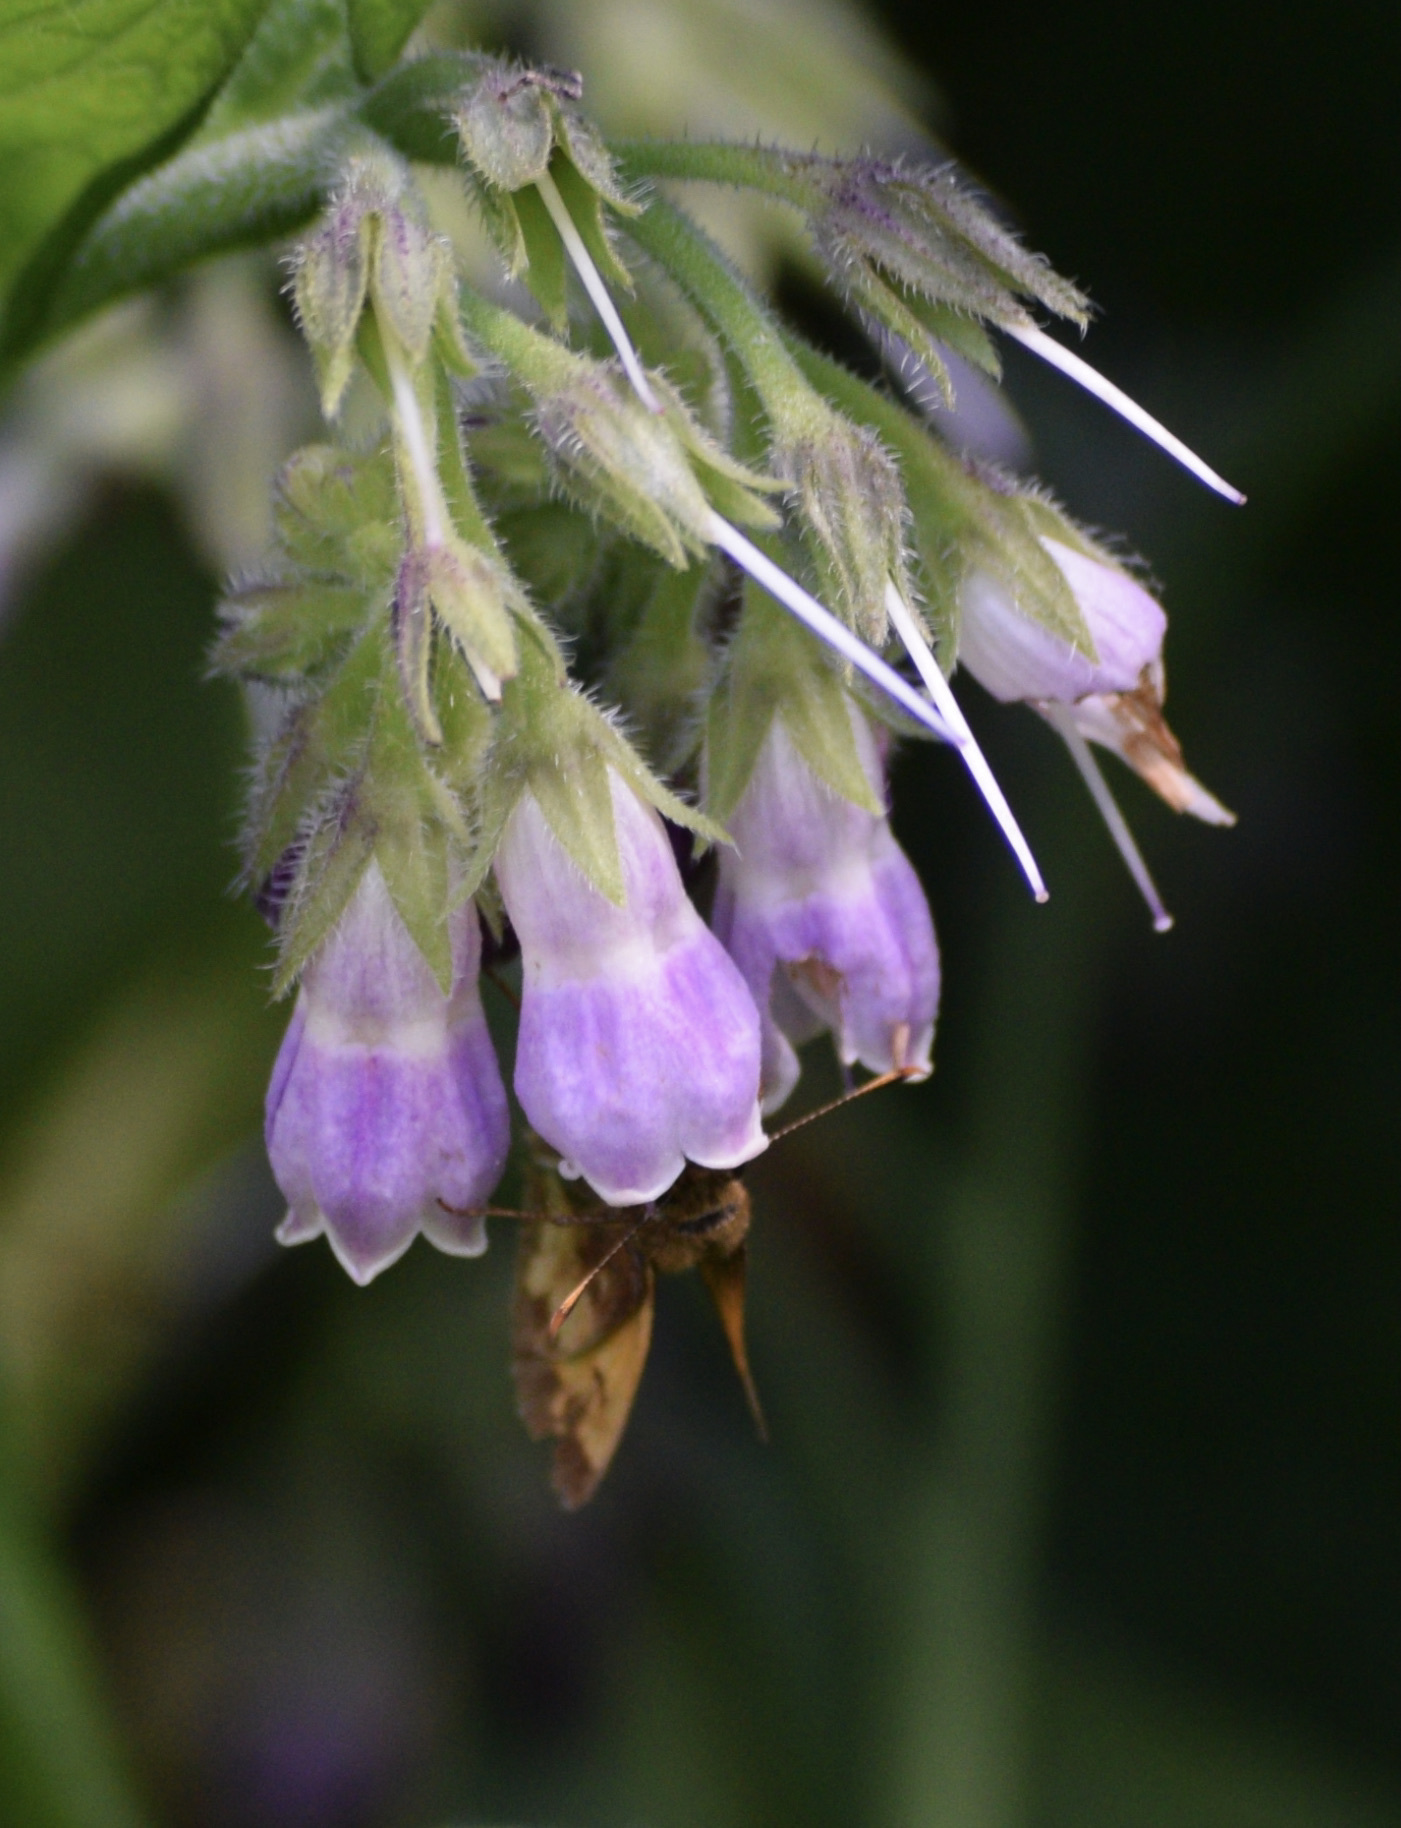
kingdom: Animalia
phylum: Arthropoda
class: Insecta
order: Lepidoptera
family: Hesperiidae
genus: Lon
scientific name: Lon hobomok
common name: Hobomok skipper
